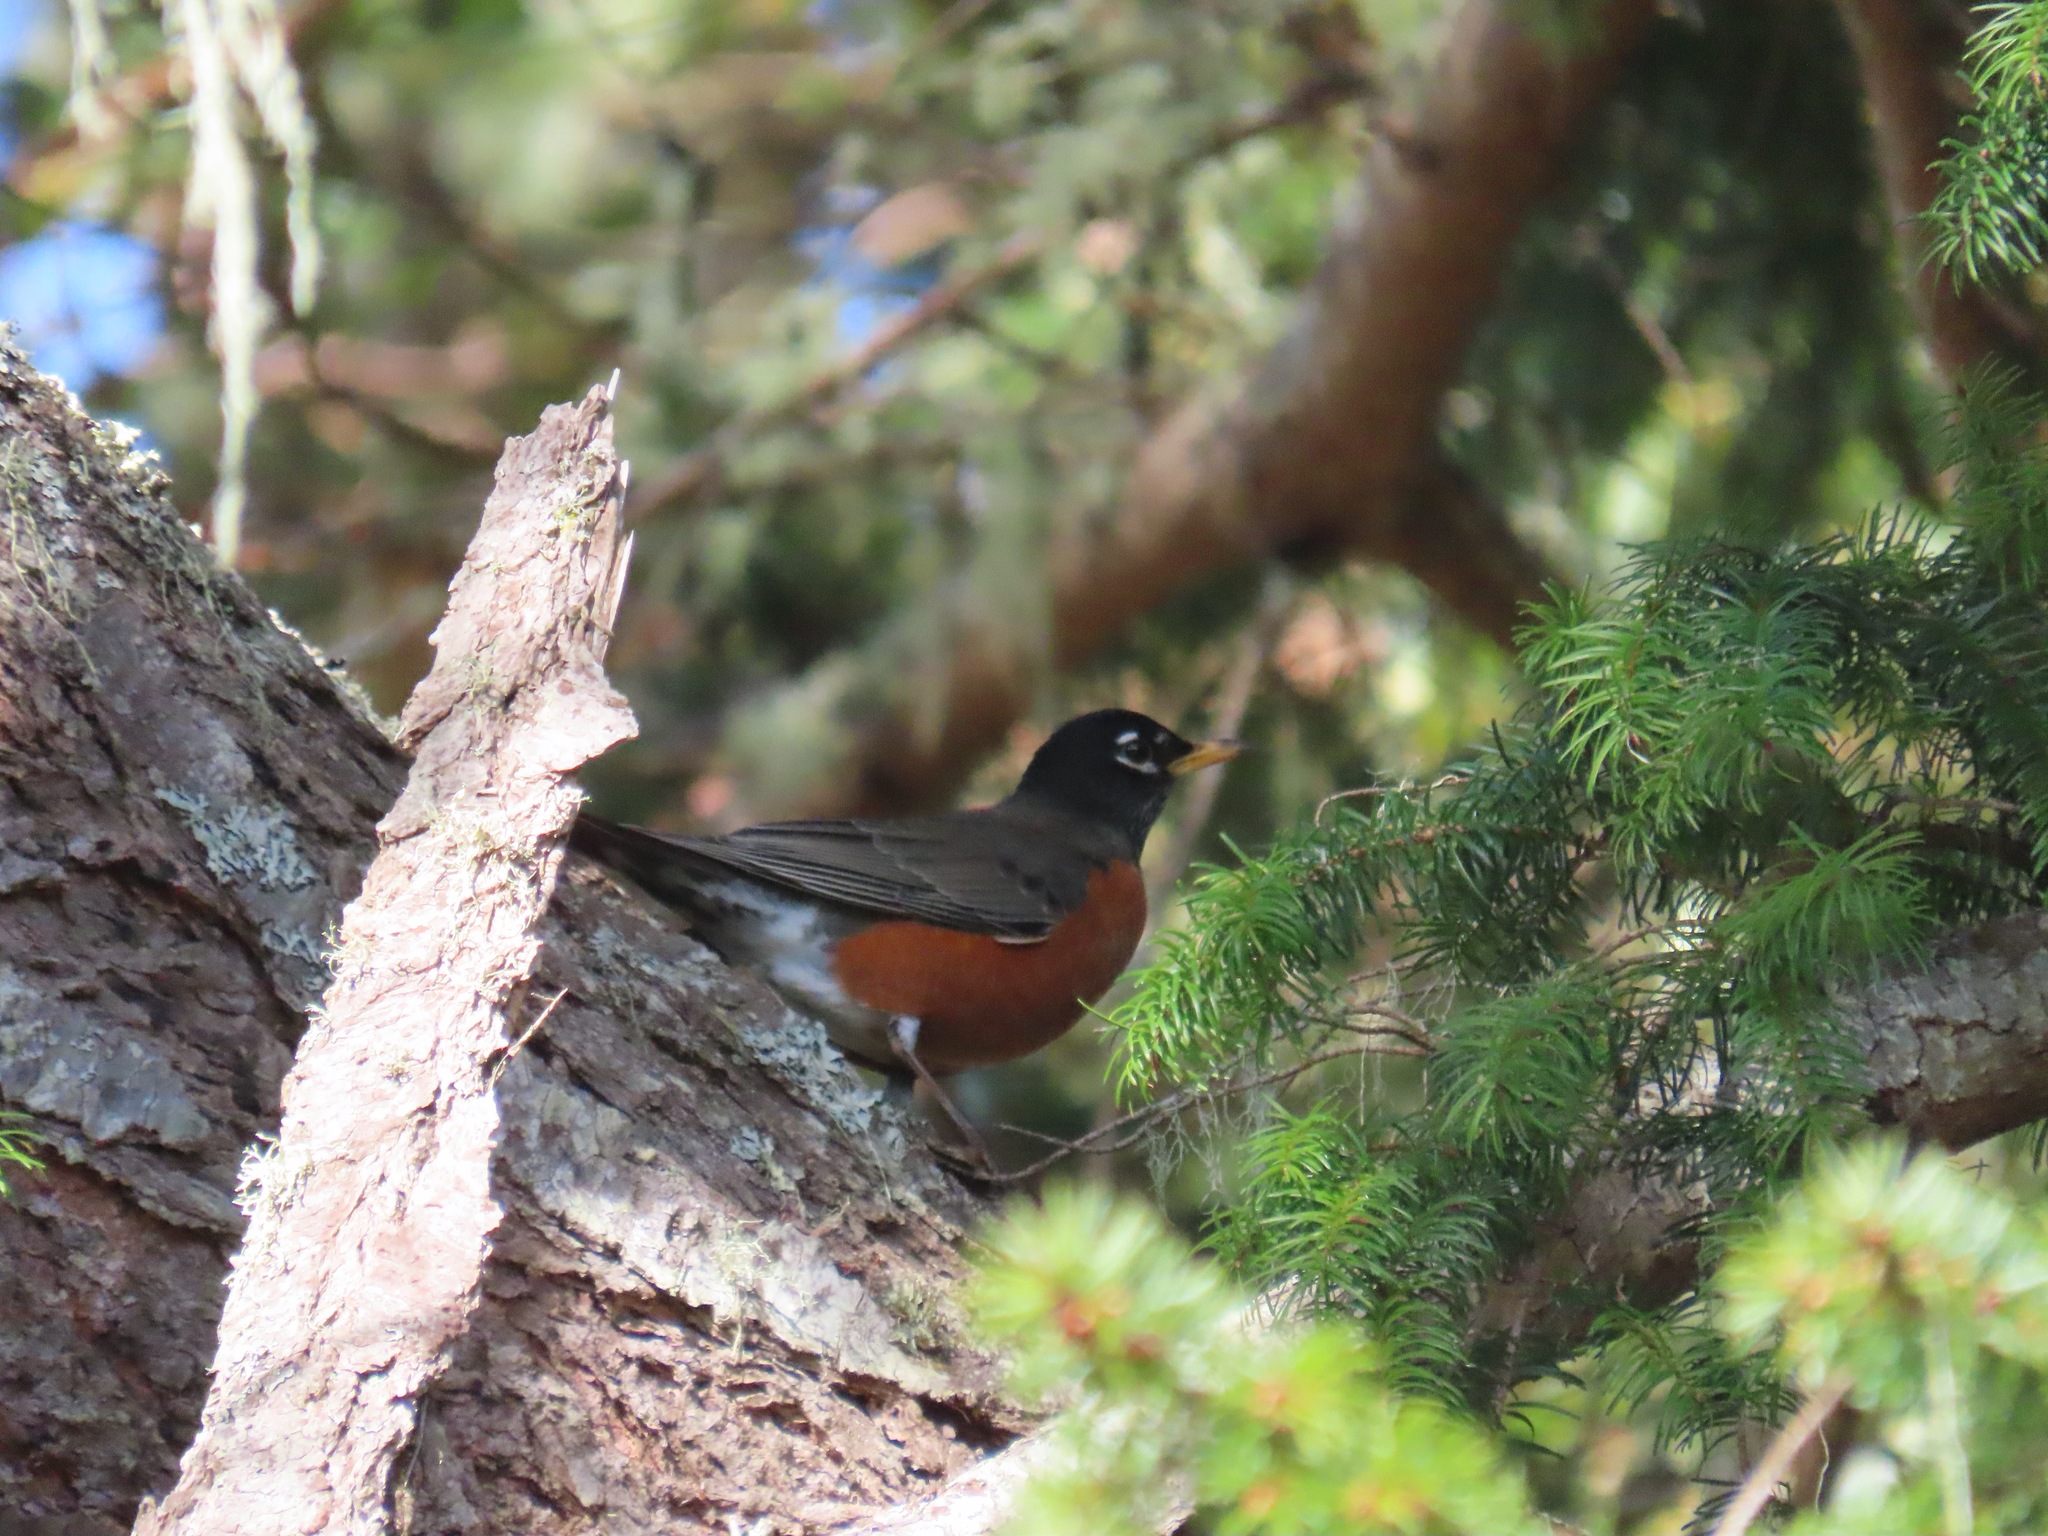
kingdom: Animalia
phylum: Chordata
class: Aves
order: Passeriformes
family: Turdidae
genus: Turdus
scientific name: Turdus migratorius
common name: American robin
